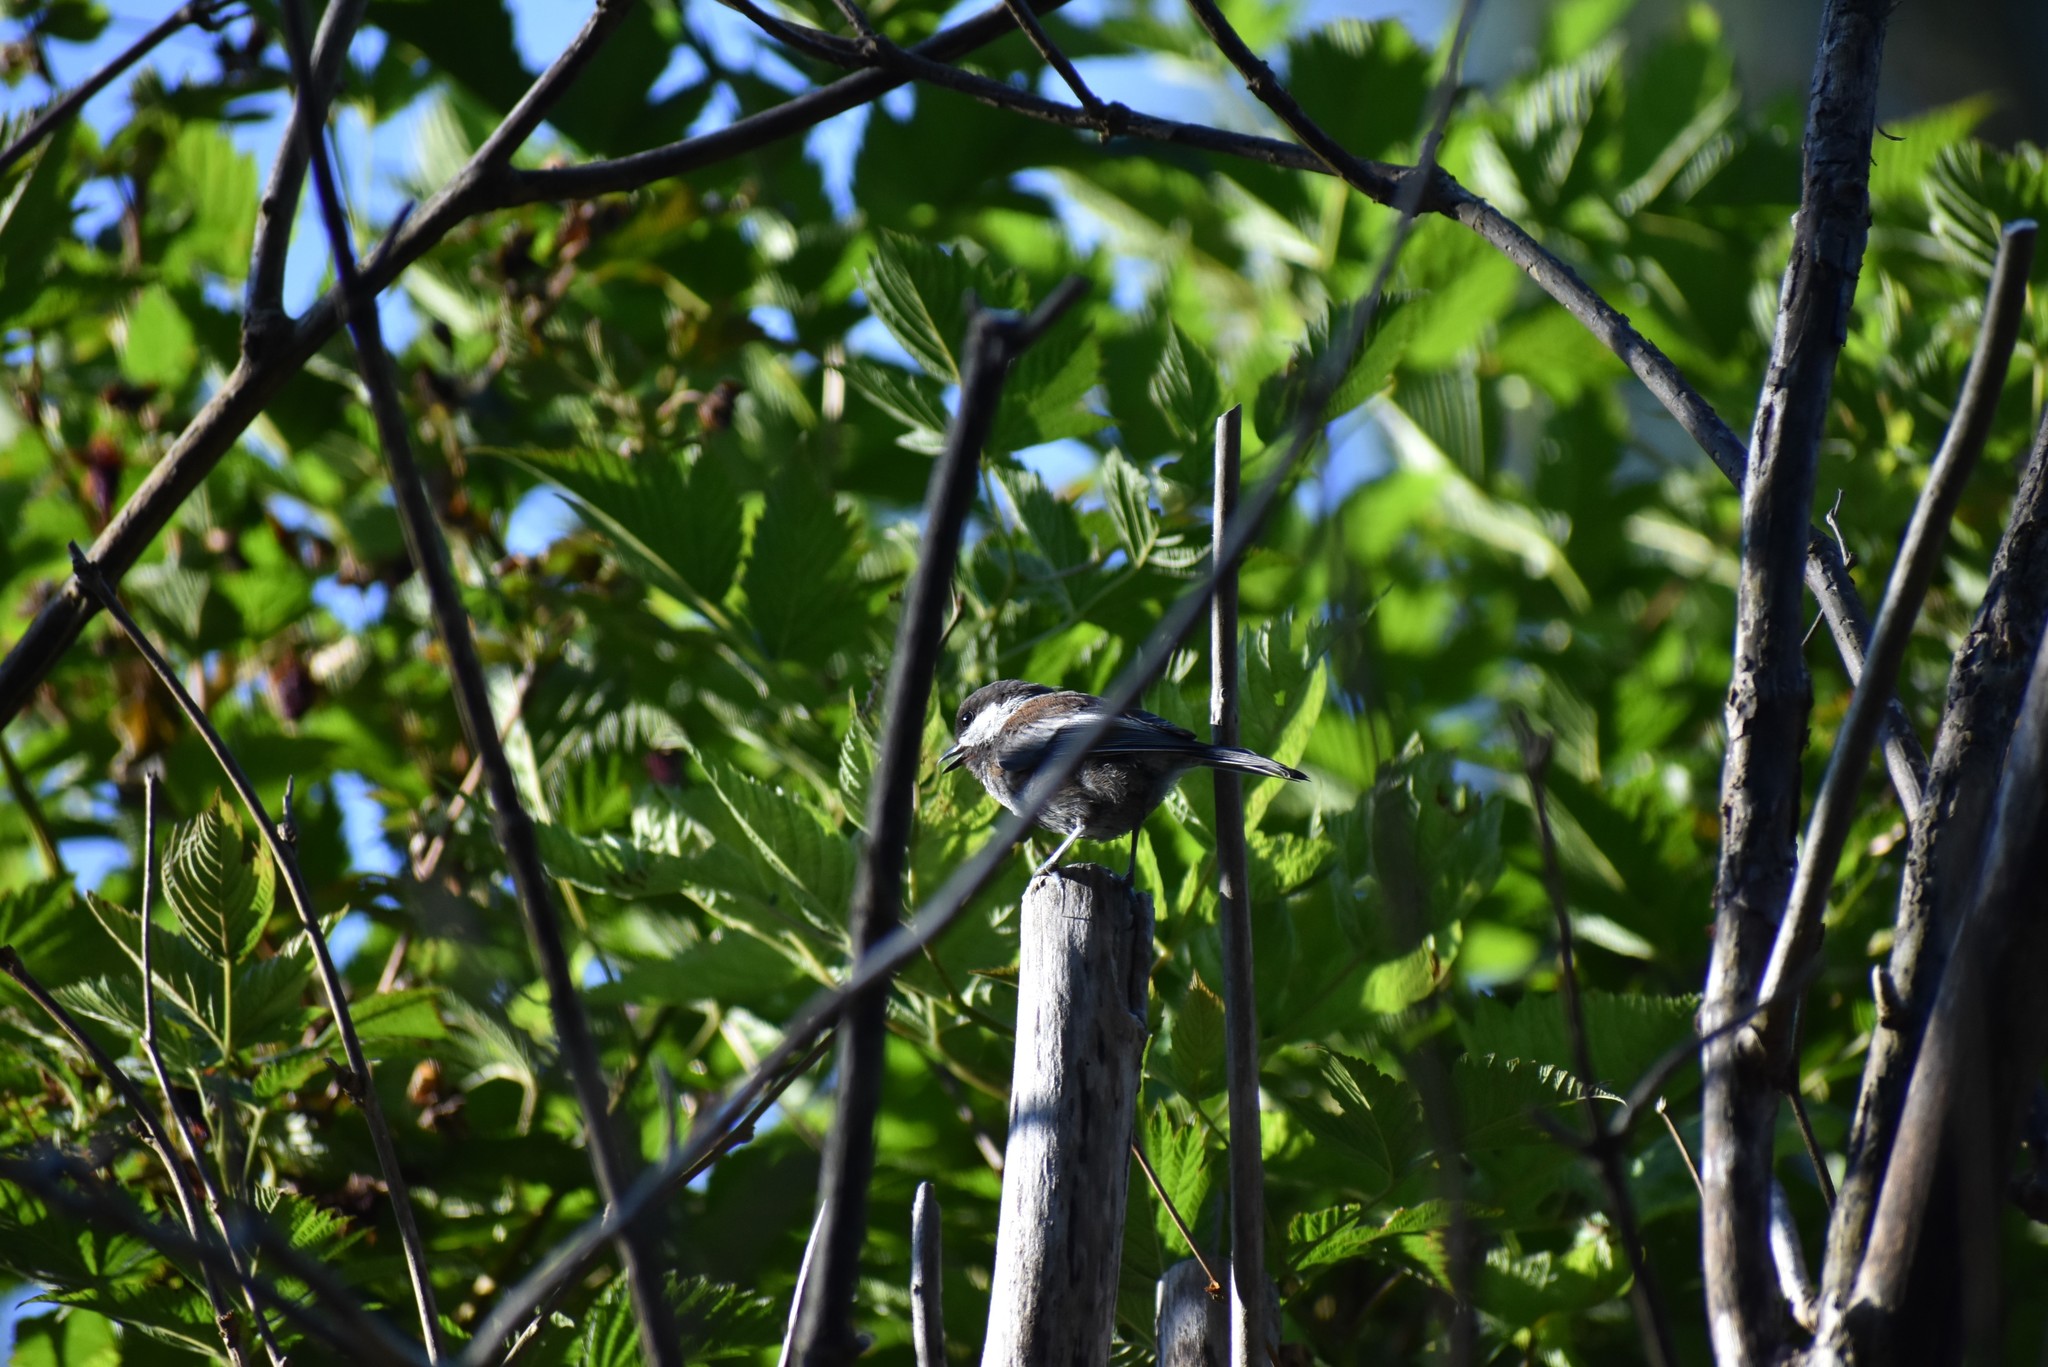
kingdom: Animalia
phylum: Chordata
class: Aves
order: Passeriformes
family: Paridae
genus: Poecile
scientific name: Poecile rufescens
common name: Chestnut-backed chickadee
